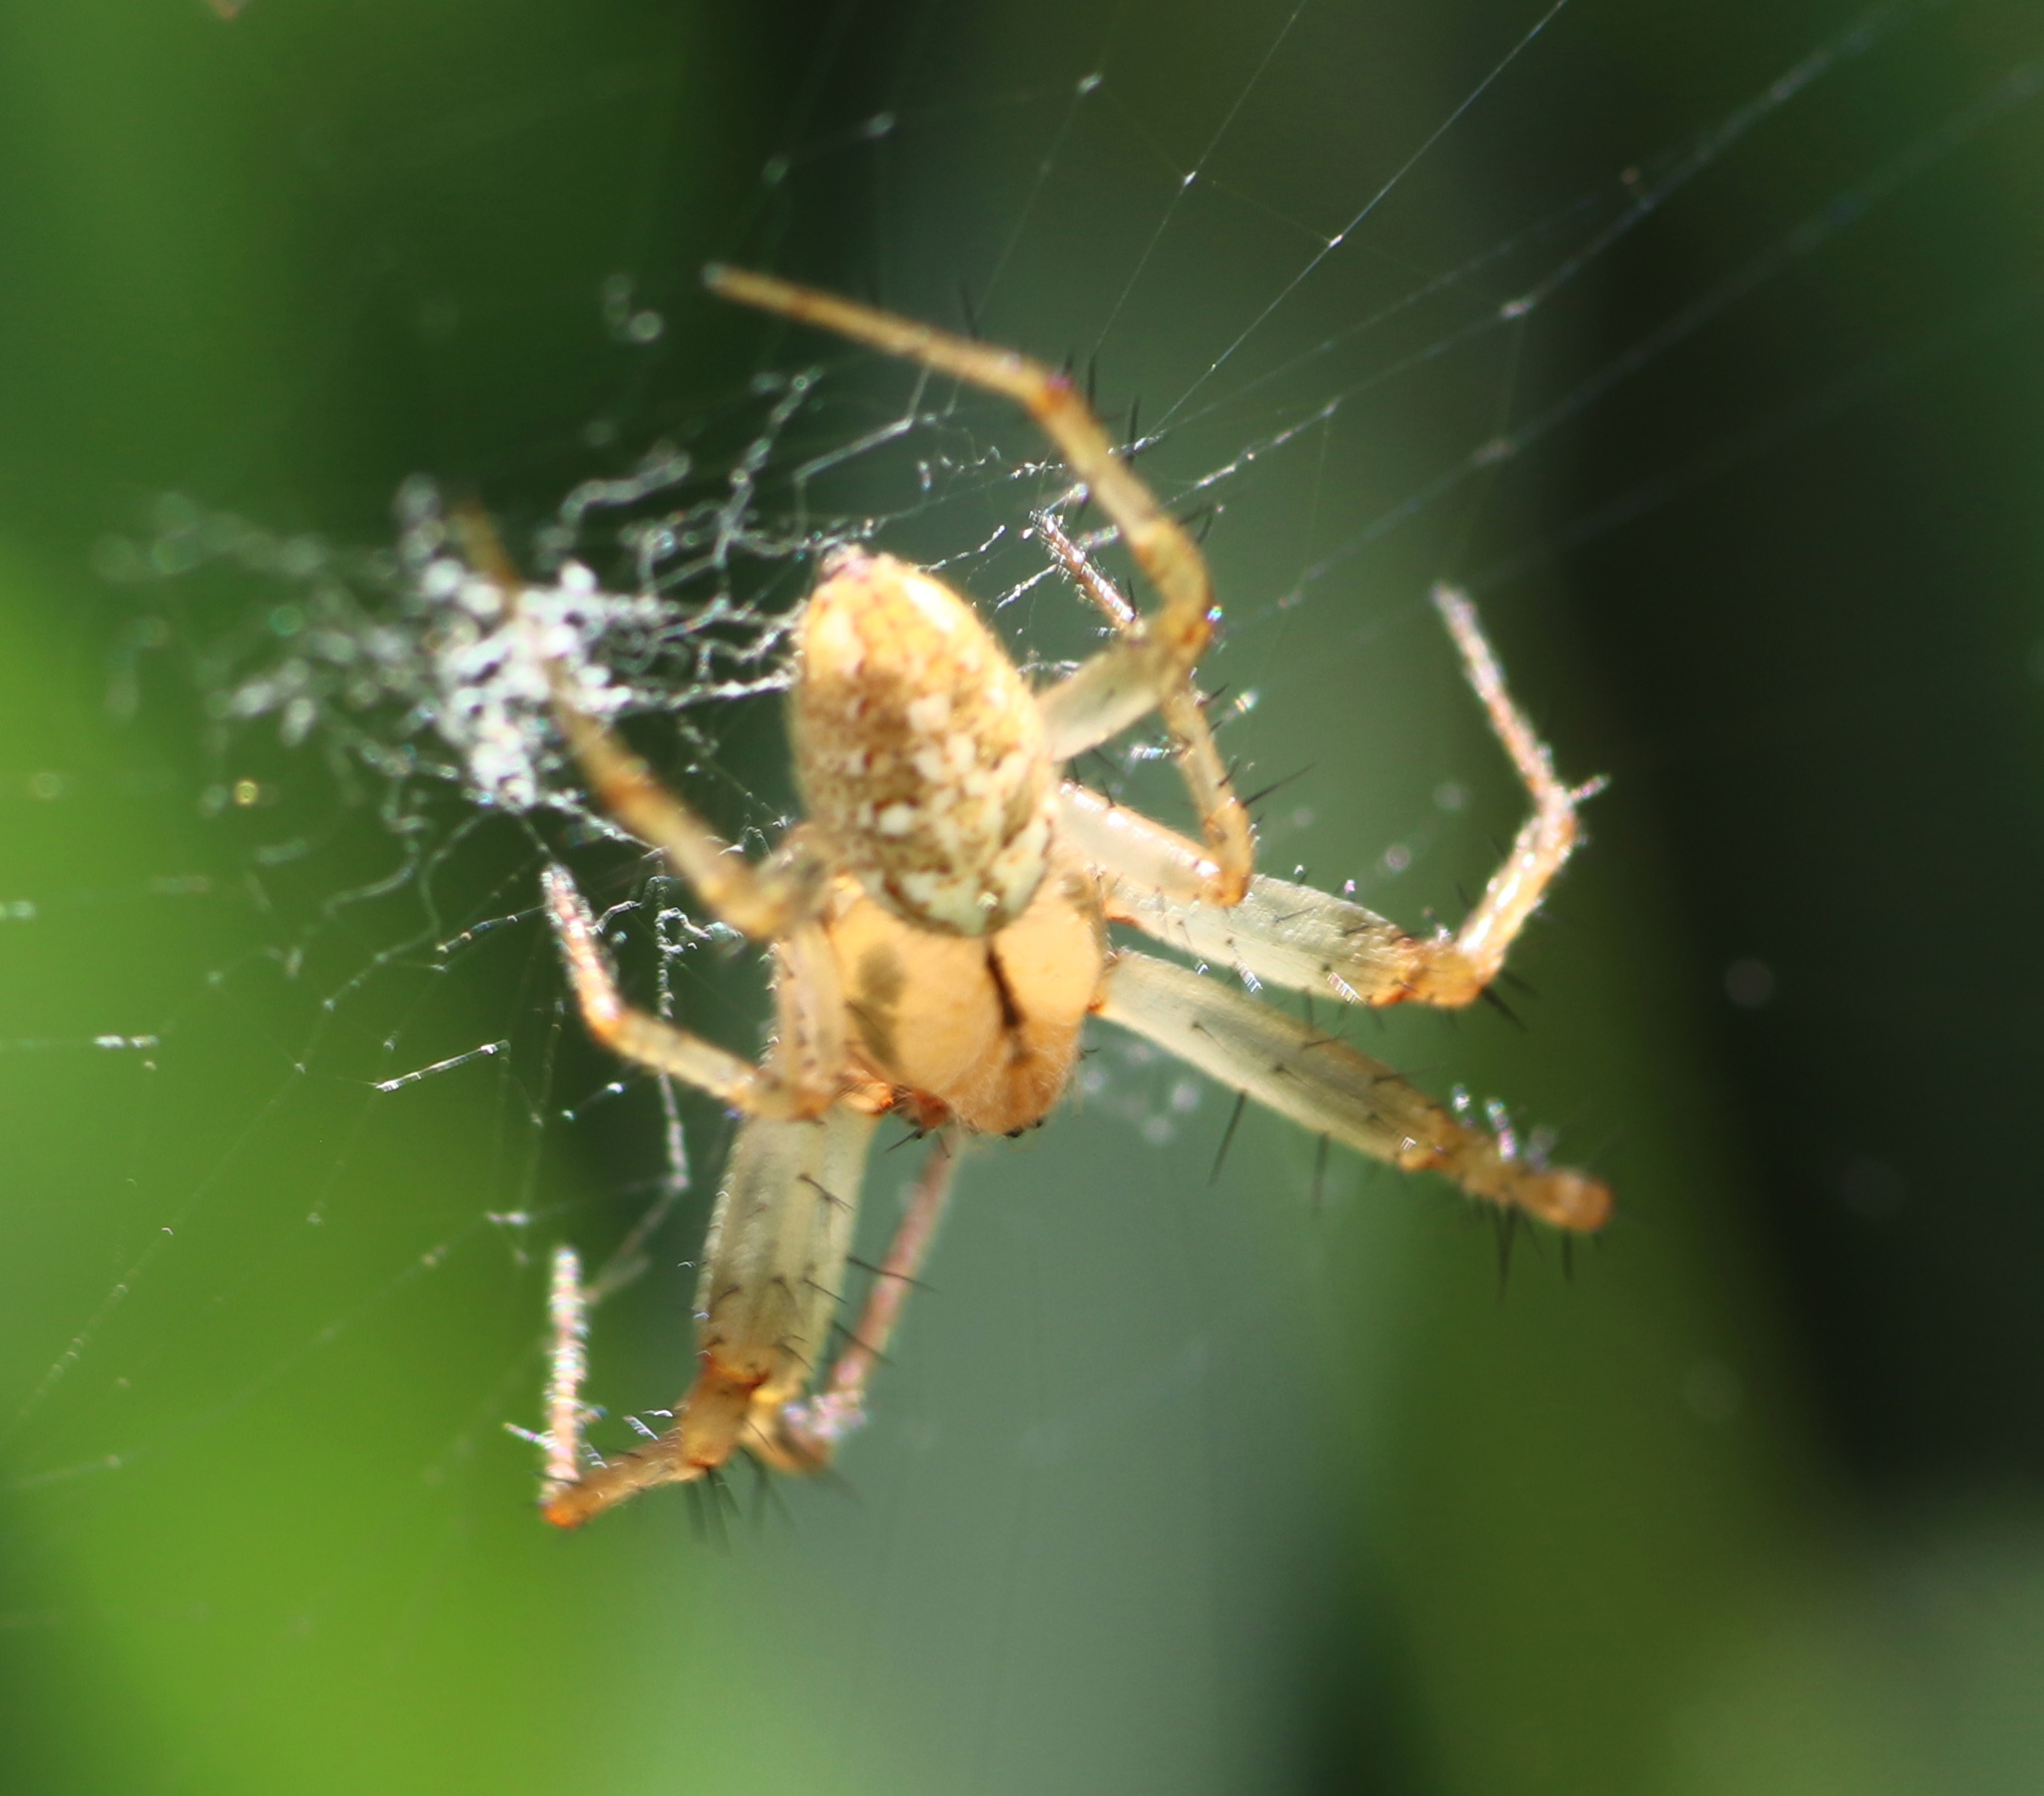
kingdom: Animalia
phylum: Arthropoda
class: Arachnida
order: Araneae
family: Araneidae
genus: Neoscona
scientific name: Neoscona arabesca
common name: Orb weavers
